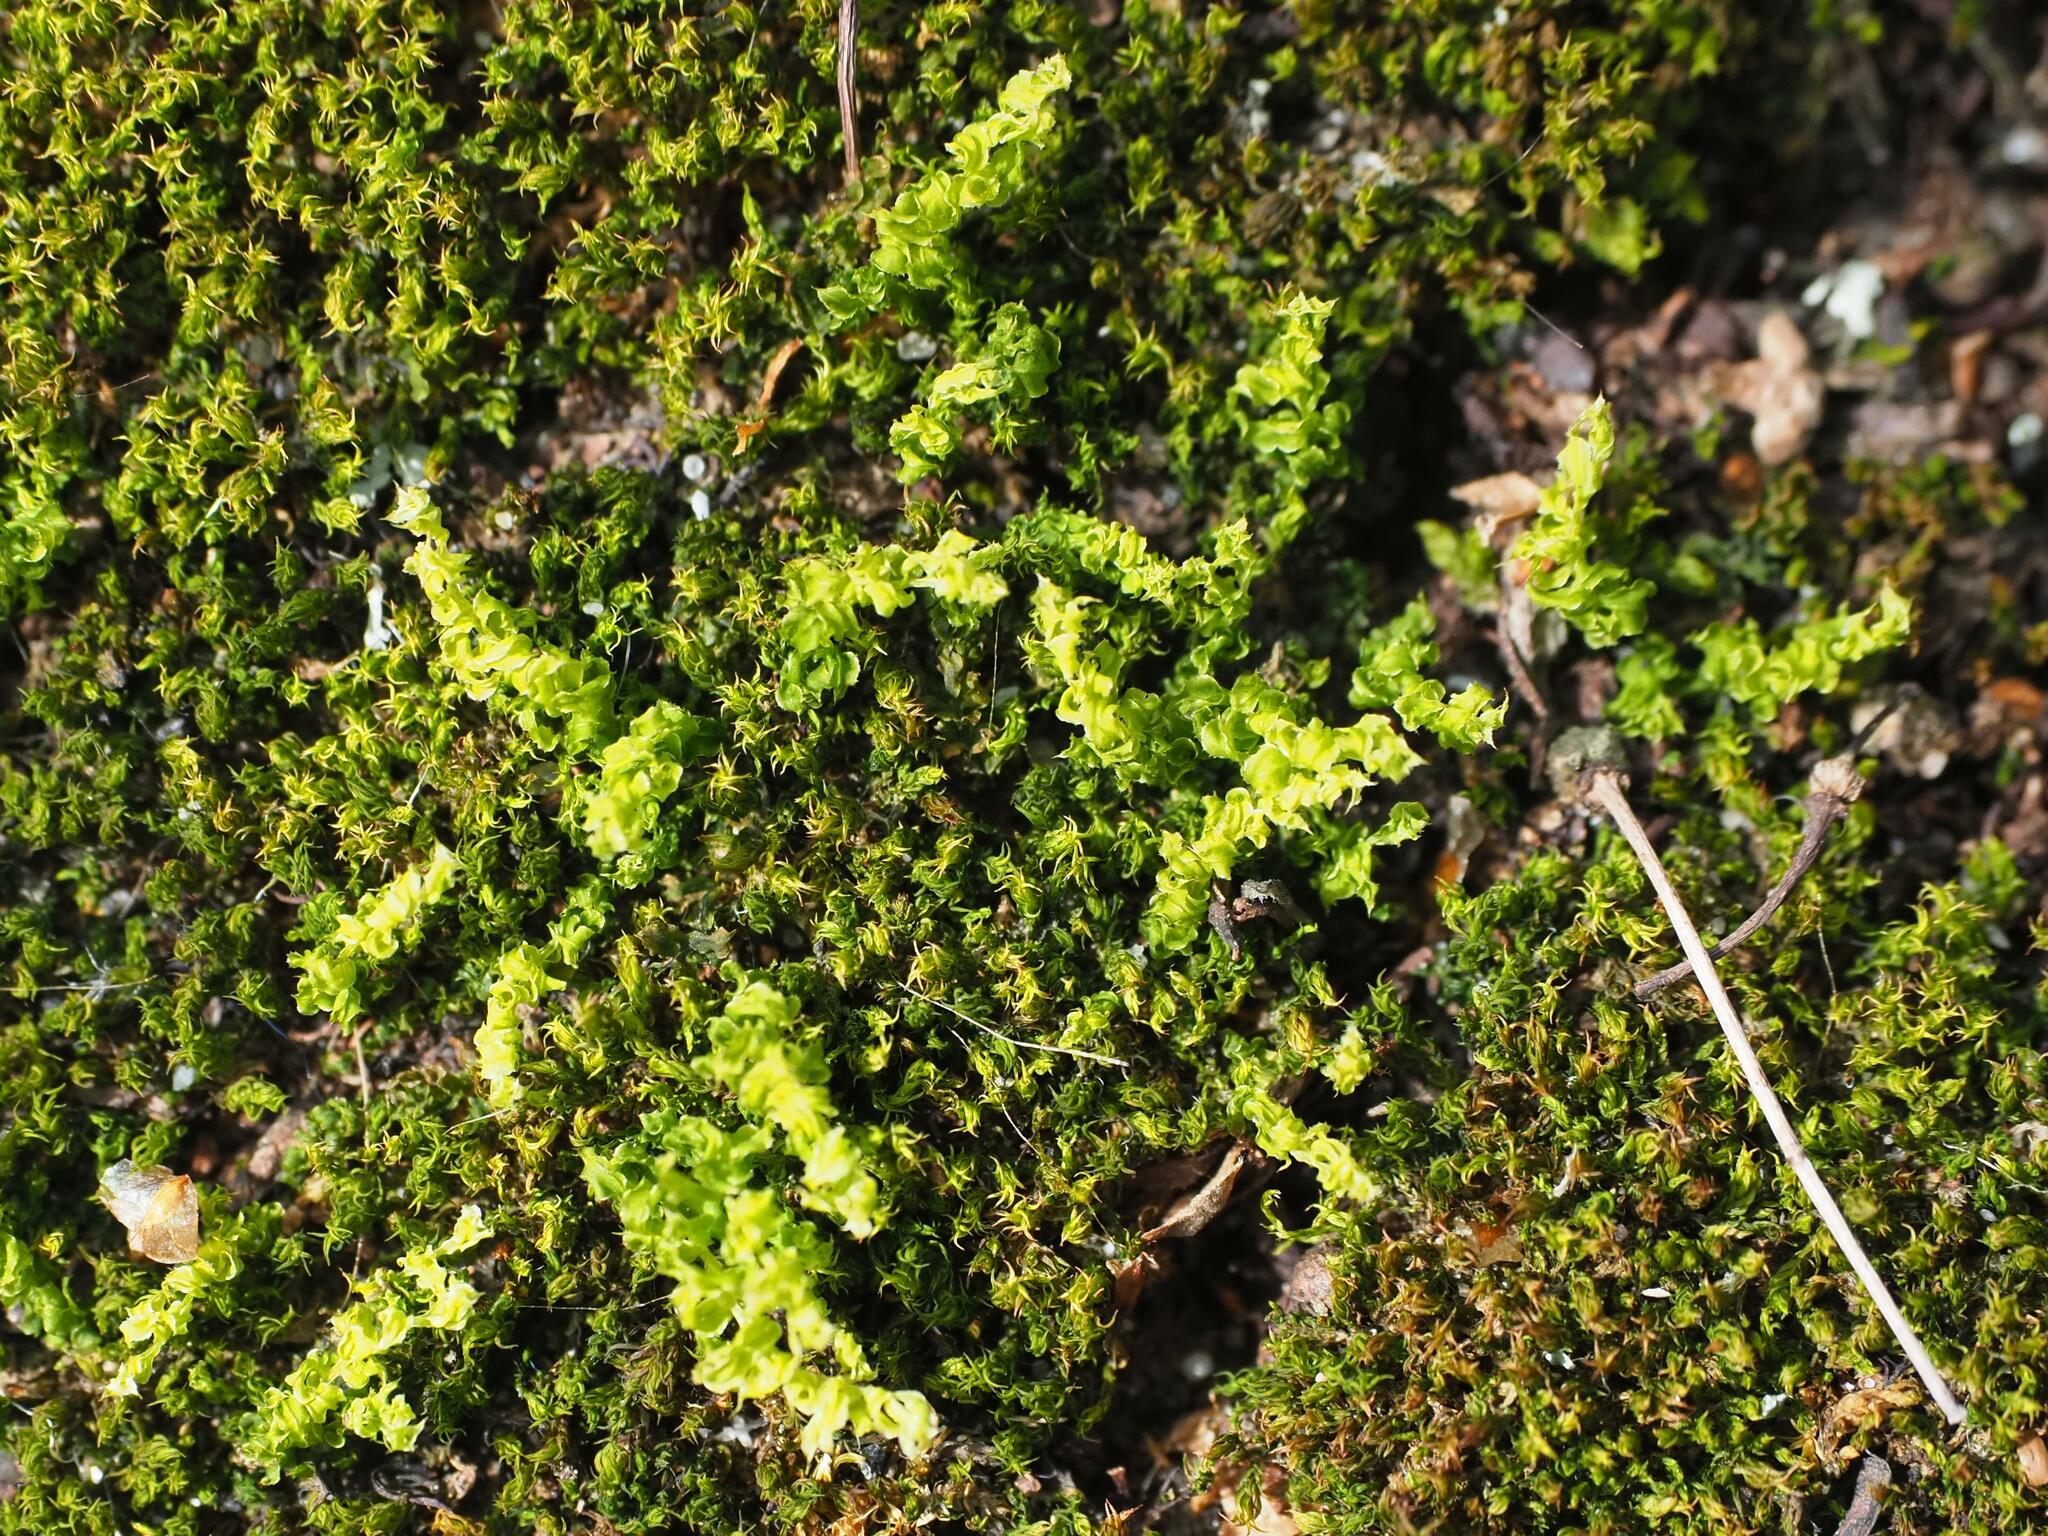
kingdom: Plantae
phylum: Bryophyta
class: Bryopsida
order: Bryales
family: Mniaceae
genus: Plagiomnium
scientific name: Plagiomnium cuspidatum
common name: Woodsy leafy moss
